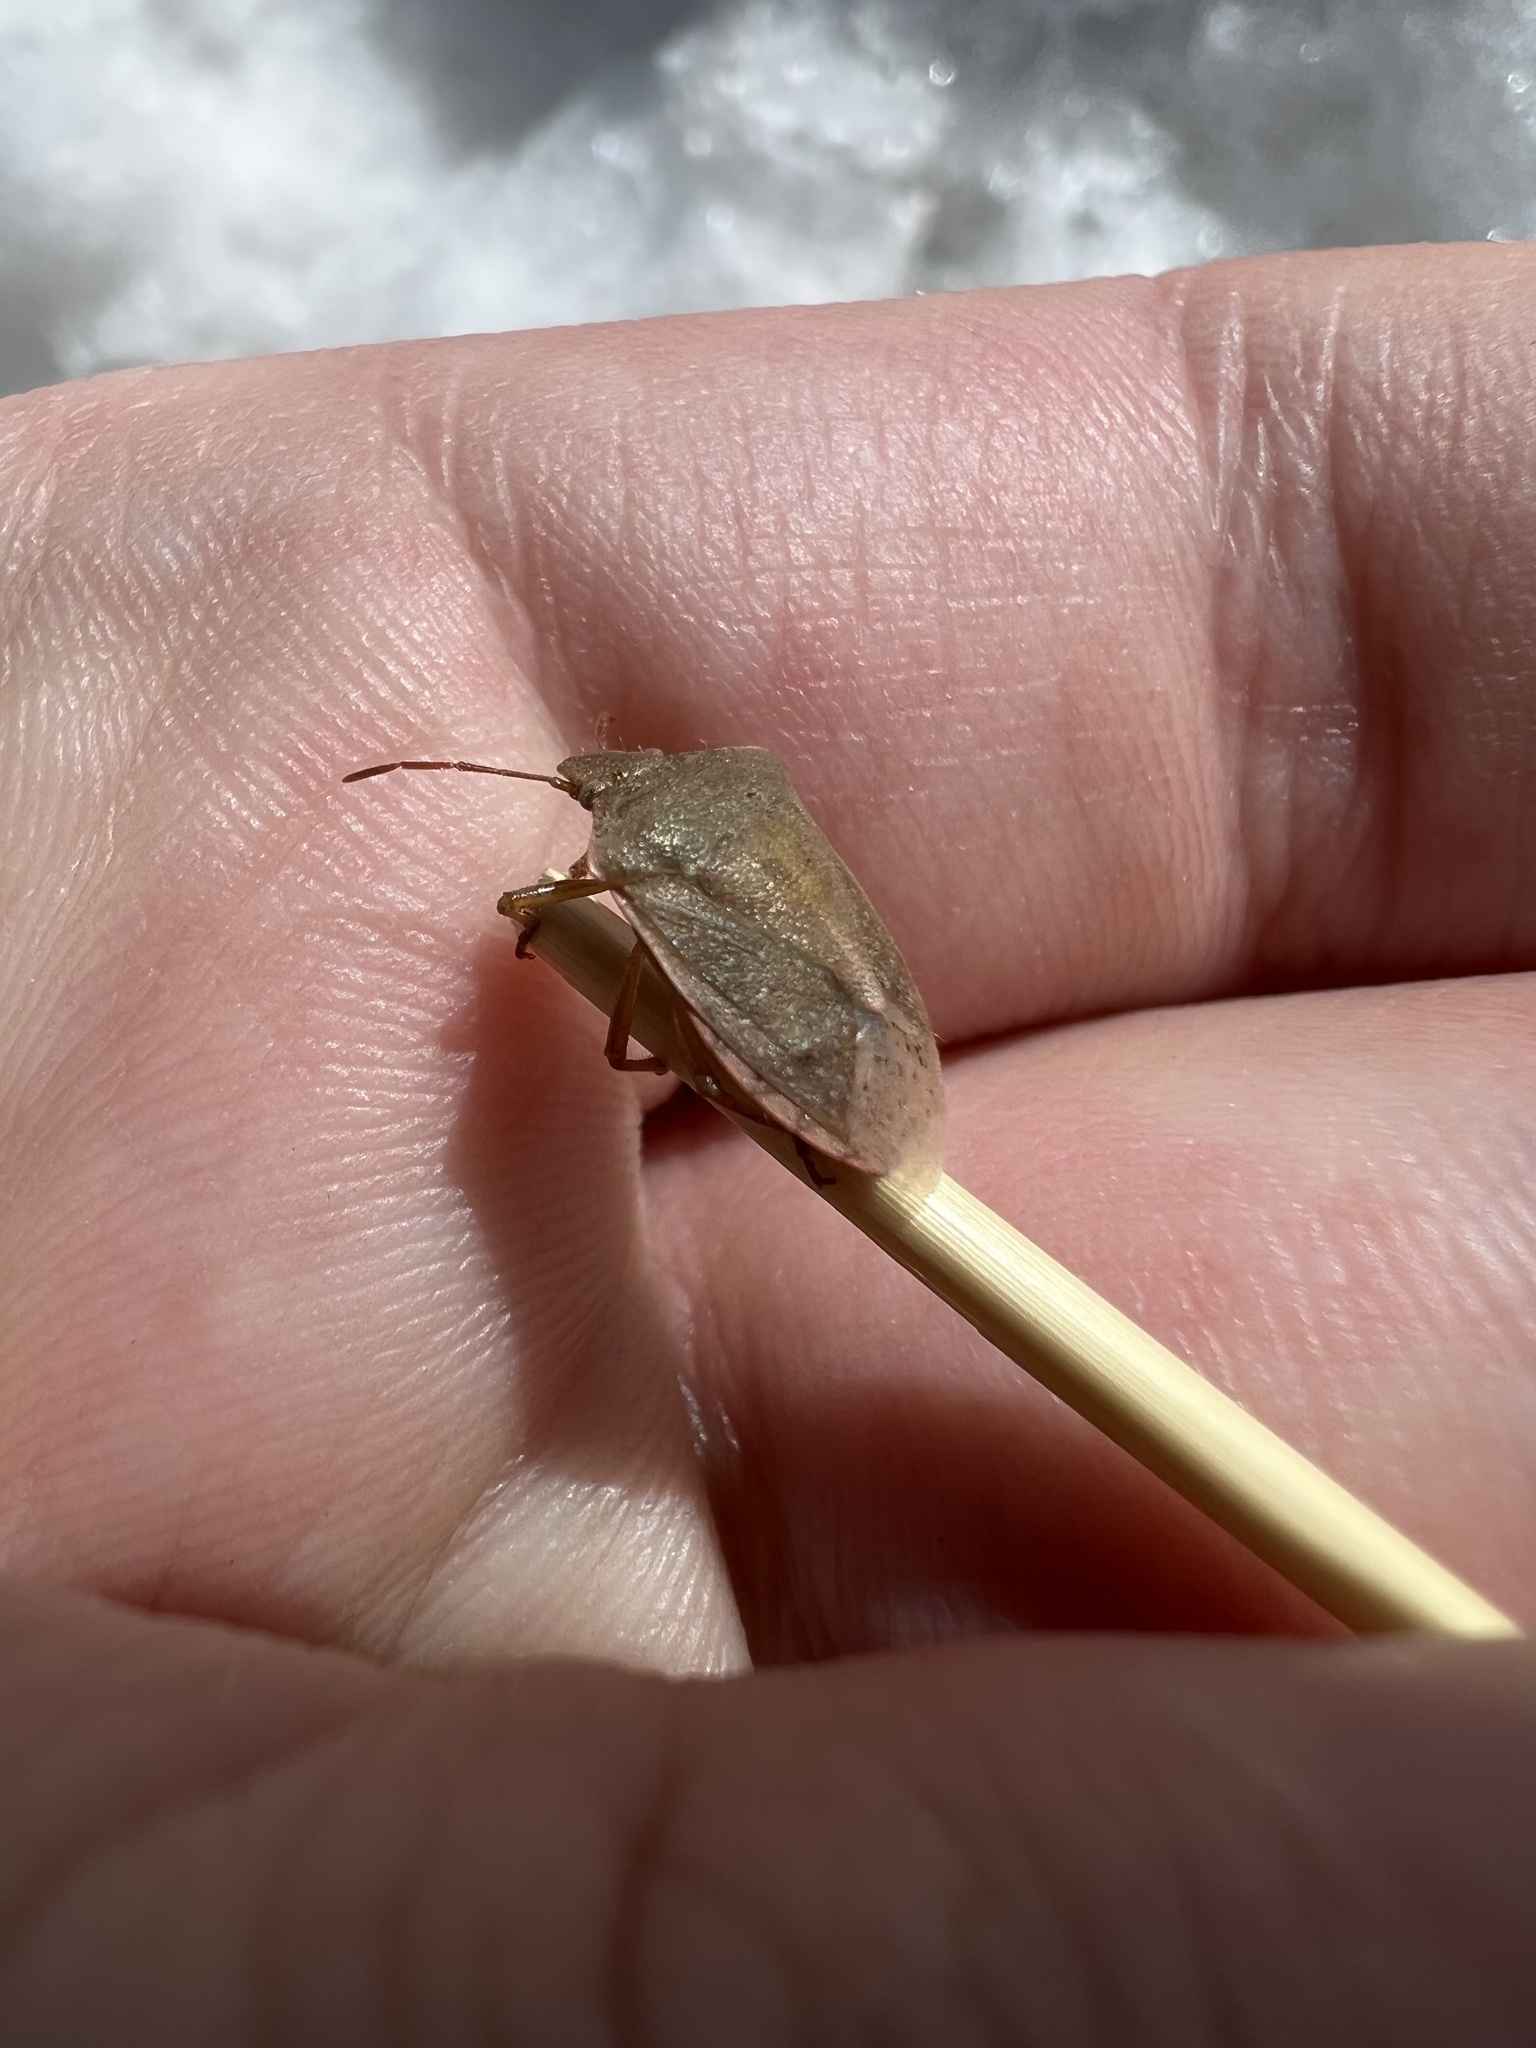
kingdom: Animalia
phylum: Arthropoda
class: Insecta
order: Hemiptera
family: Pentatomidae
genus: Thyanta
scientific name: Thyanta accerra
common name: Stink bug
